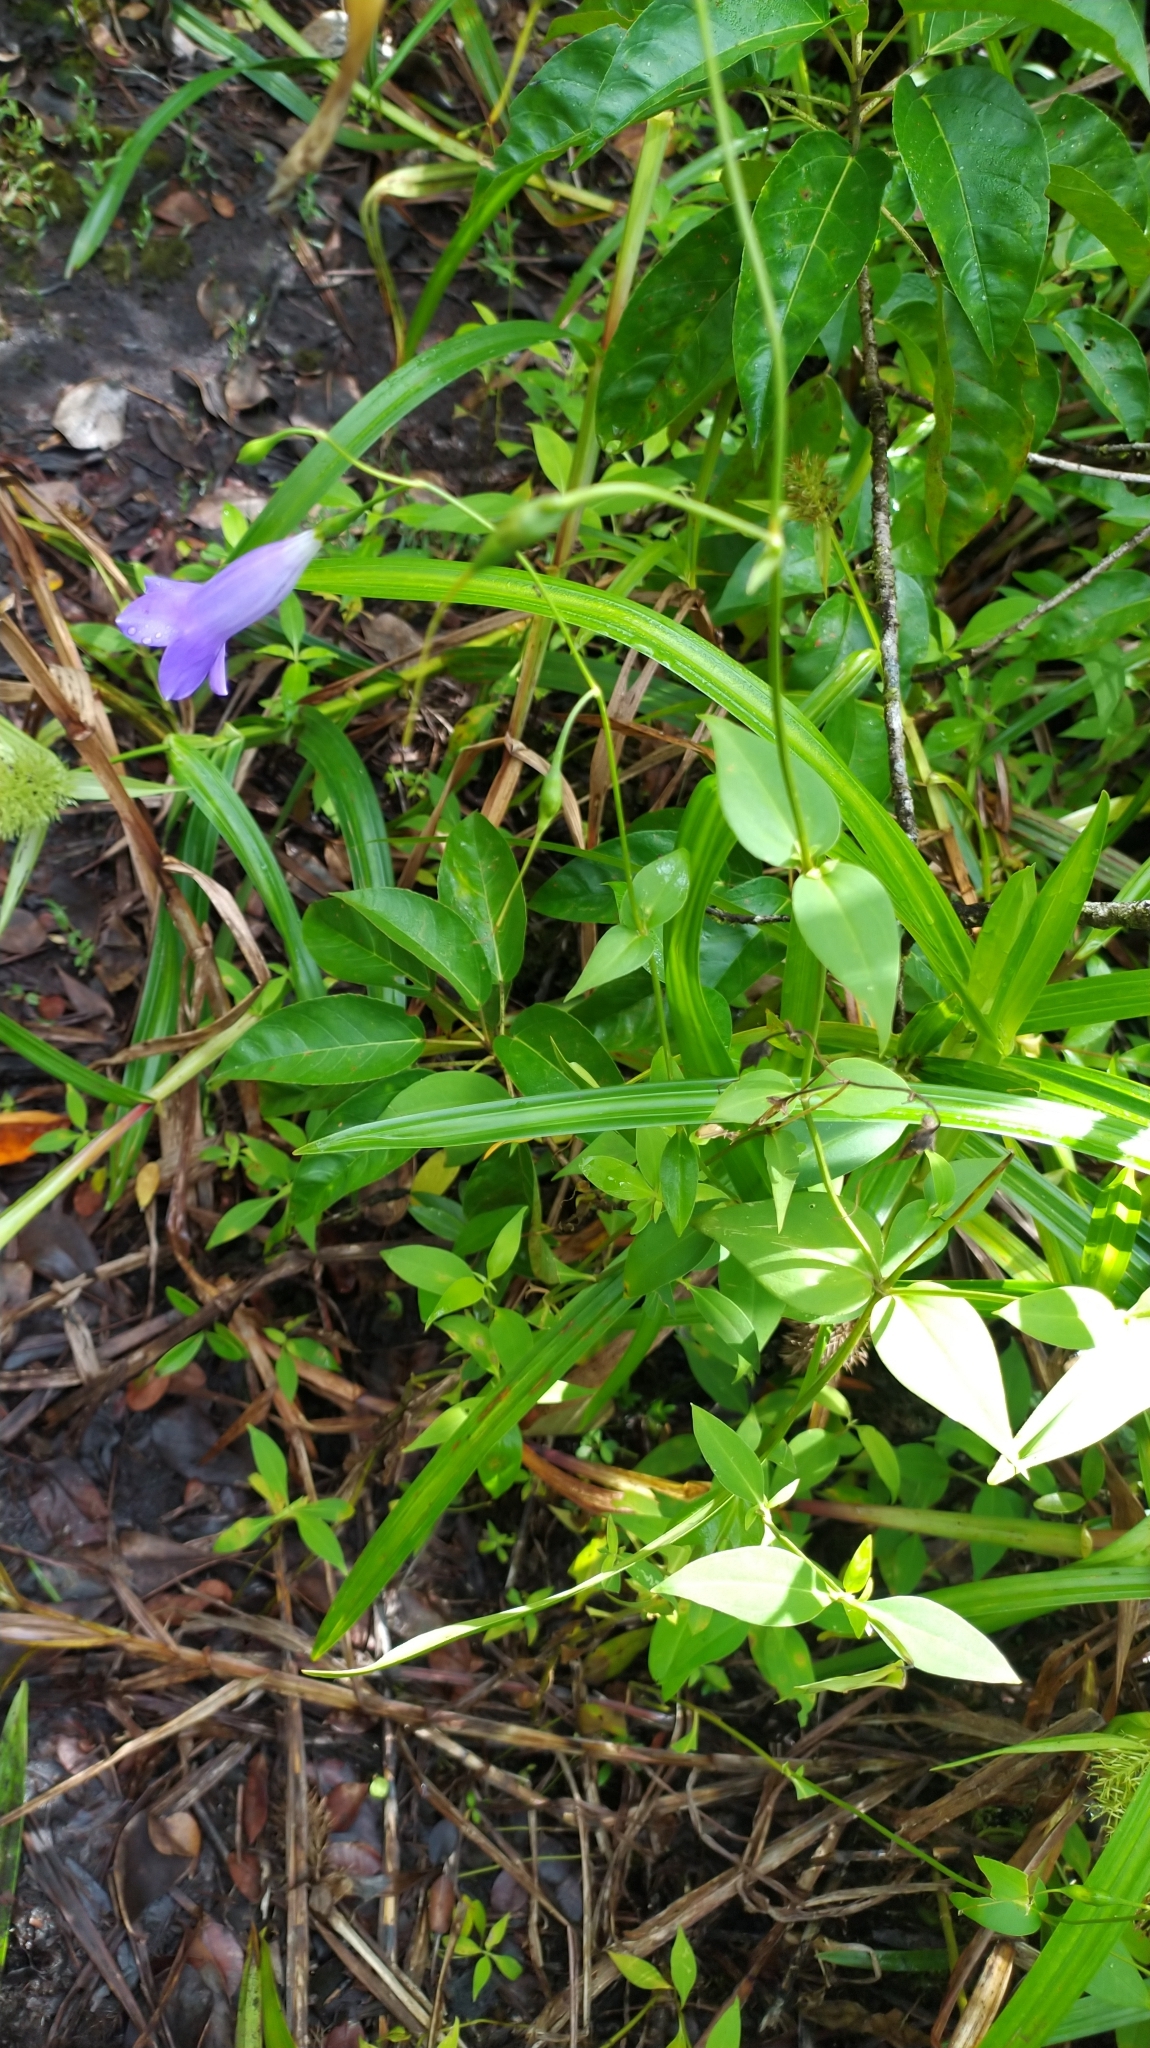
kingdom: Plantae
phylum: Tracheophyta
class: Magnoliopsida
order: Gentianales
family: Gentianaceae
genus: Chelonanthus
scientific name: Chelonanthus purpurascens
